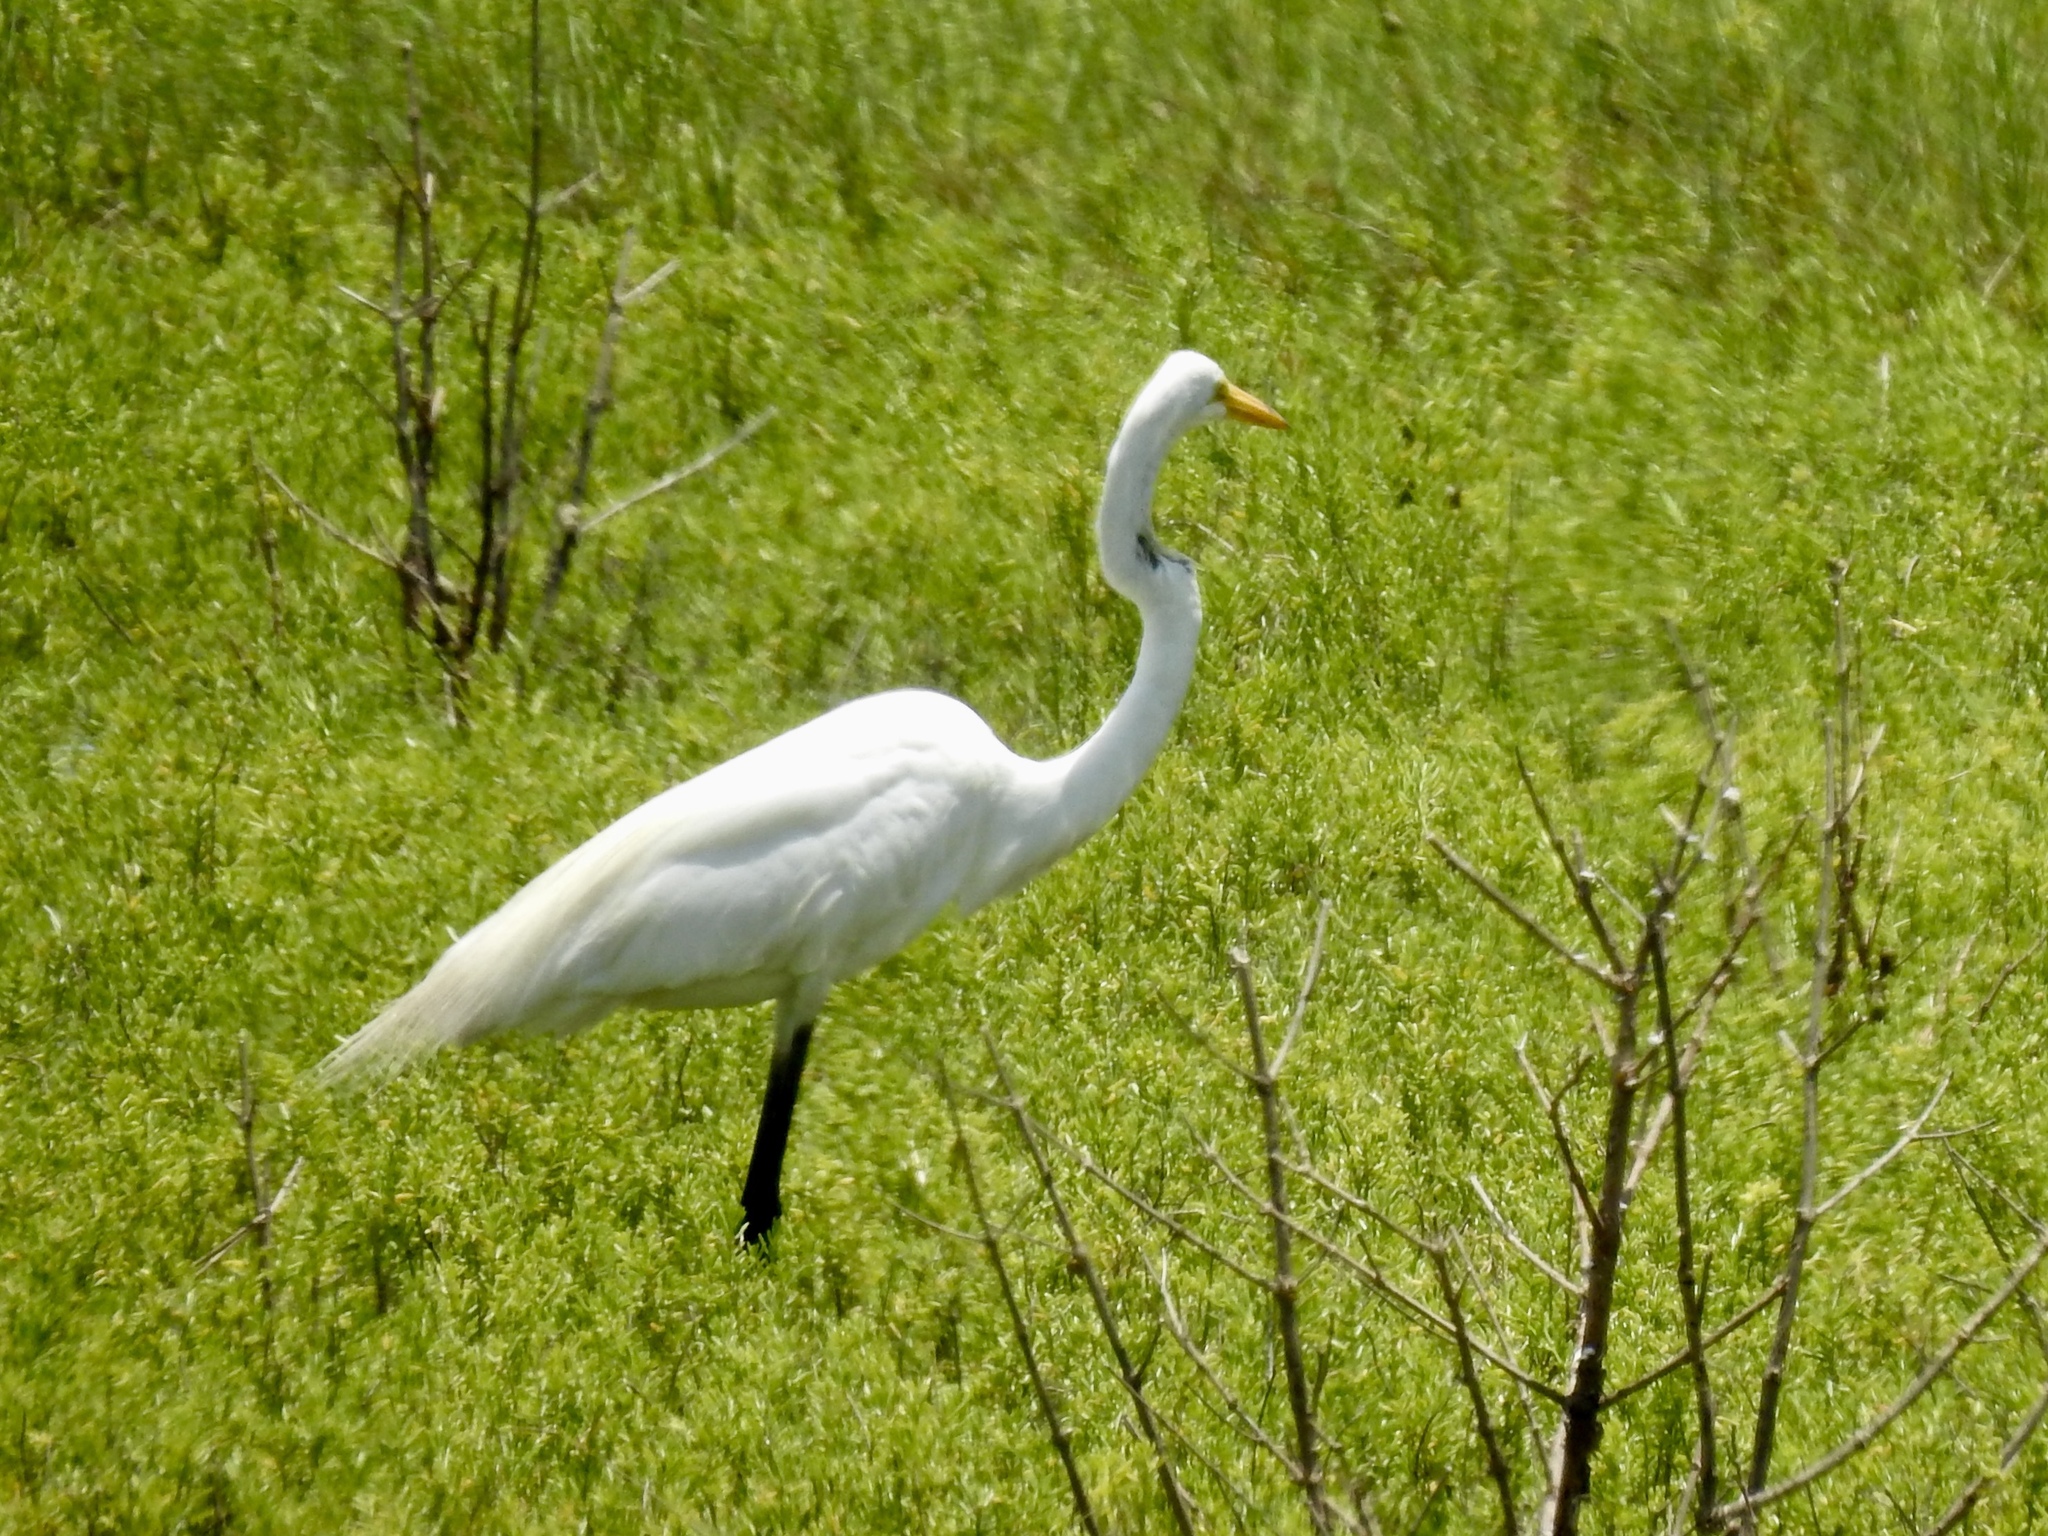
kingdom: Animalia
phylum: Chordata
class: Aves
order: Pelecaniformes
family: Ardeidae
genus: Ardea
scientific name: Ardea alba
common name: Great egret
